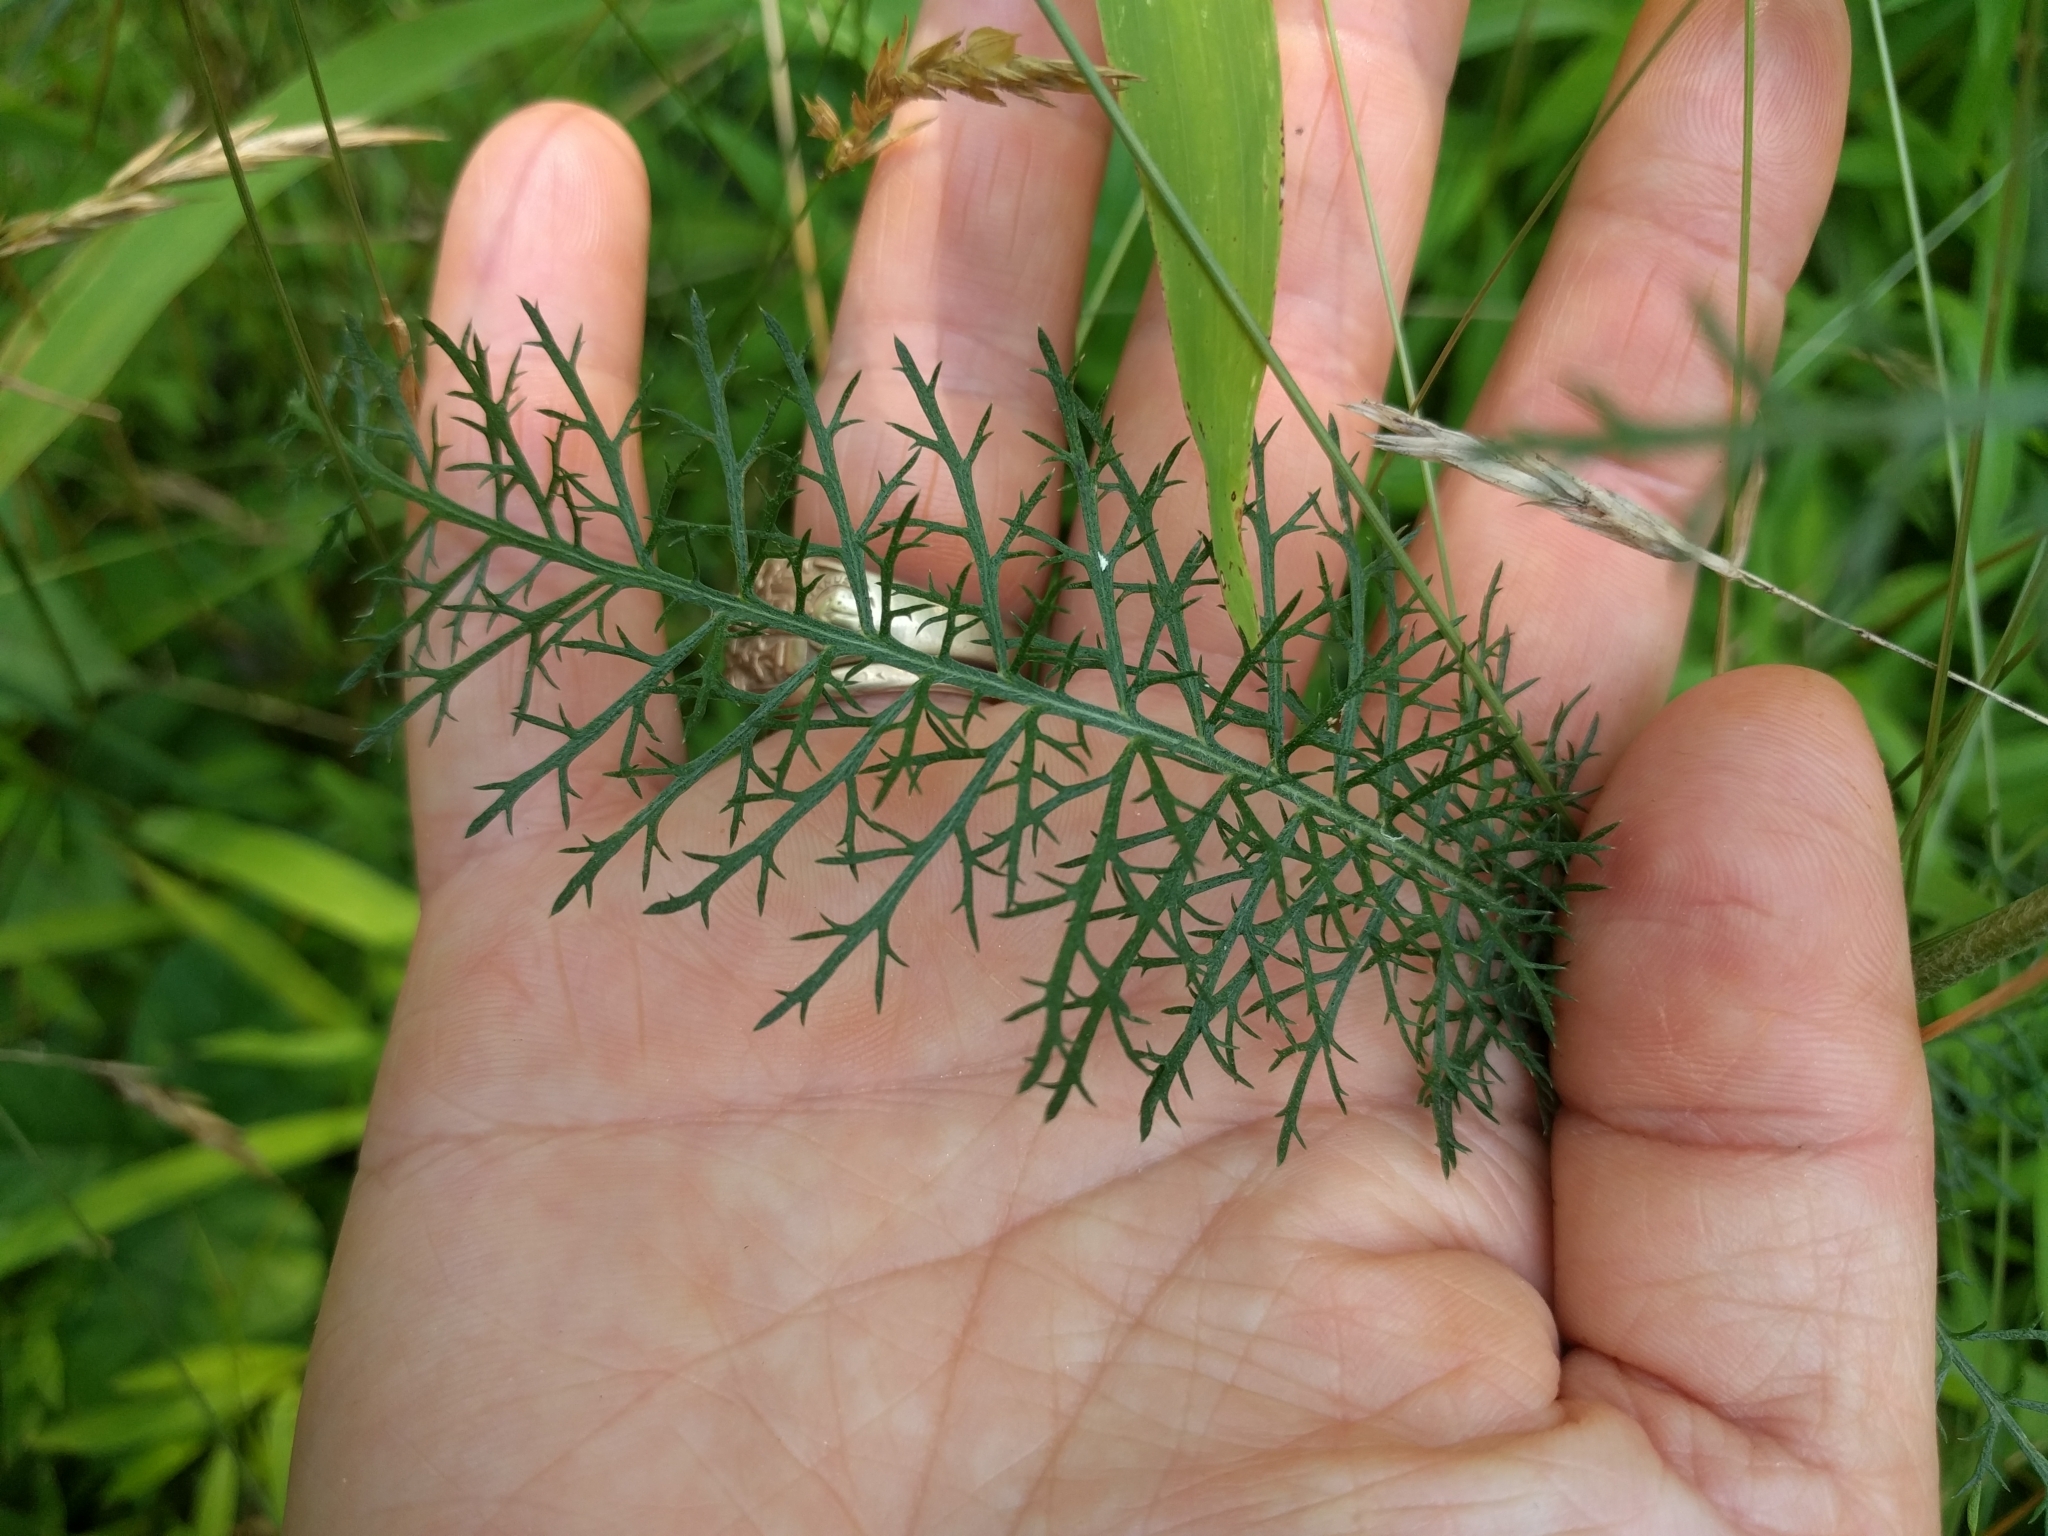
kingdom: Plantae
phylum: Tracheophyta
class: Magnoliopsida
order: Asterales
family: Asteraceae
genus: Achillea
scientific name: Achillea millefolium
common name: Yarrow
